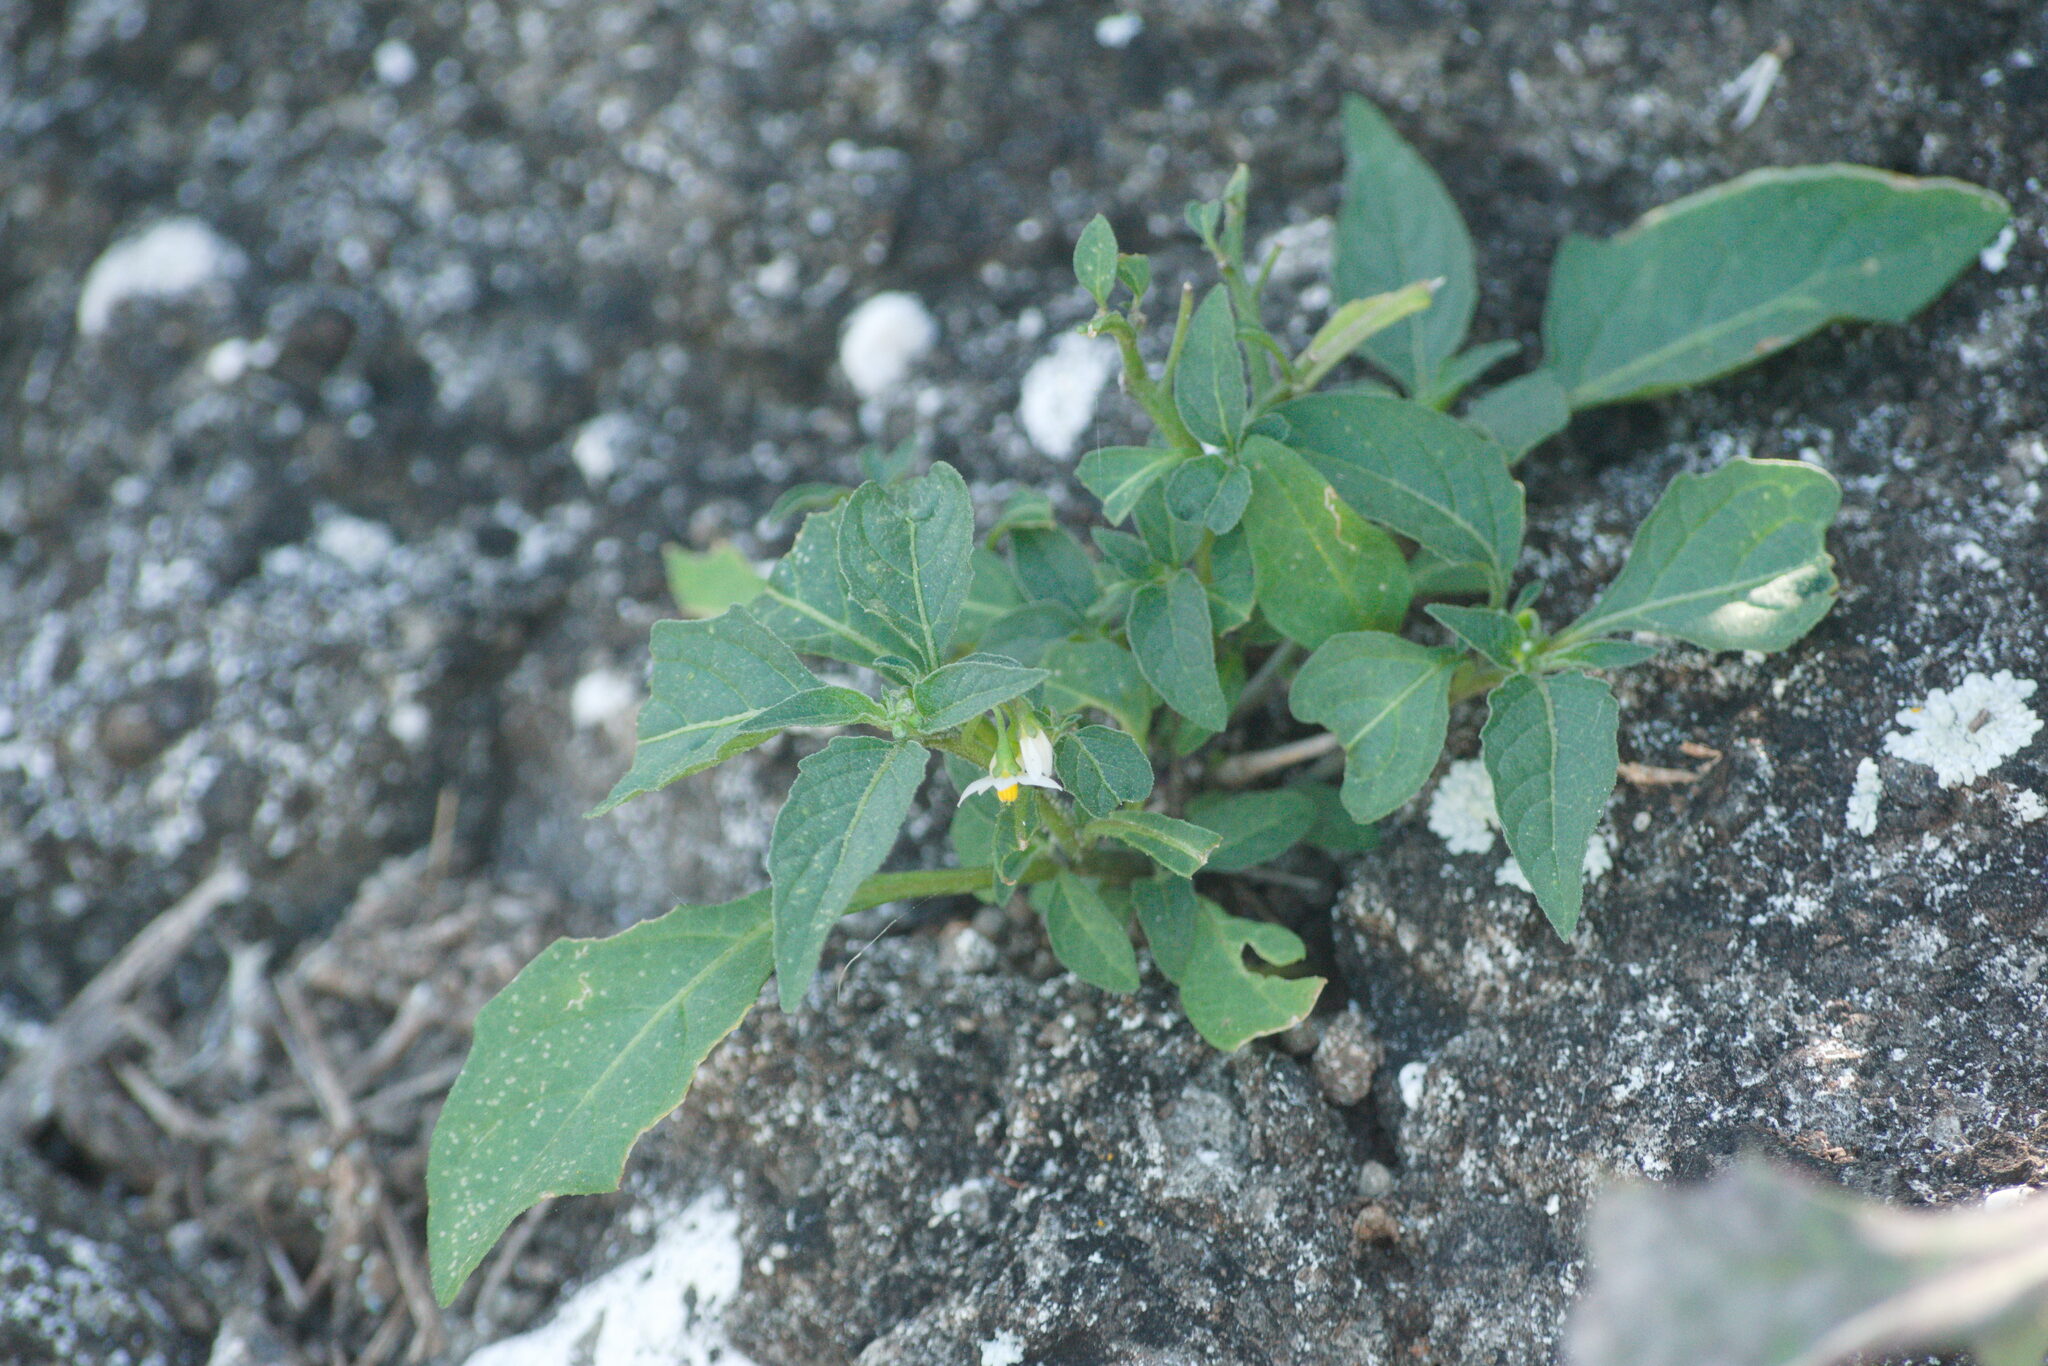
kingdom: Plantae
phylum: Tracheophyta
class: Magnoliopsida
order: Solanales
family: Solanaceae
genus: Solanum
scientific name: Solanum americanum
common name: American black nightshade
